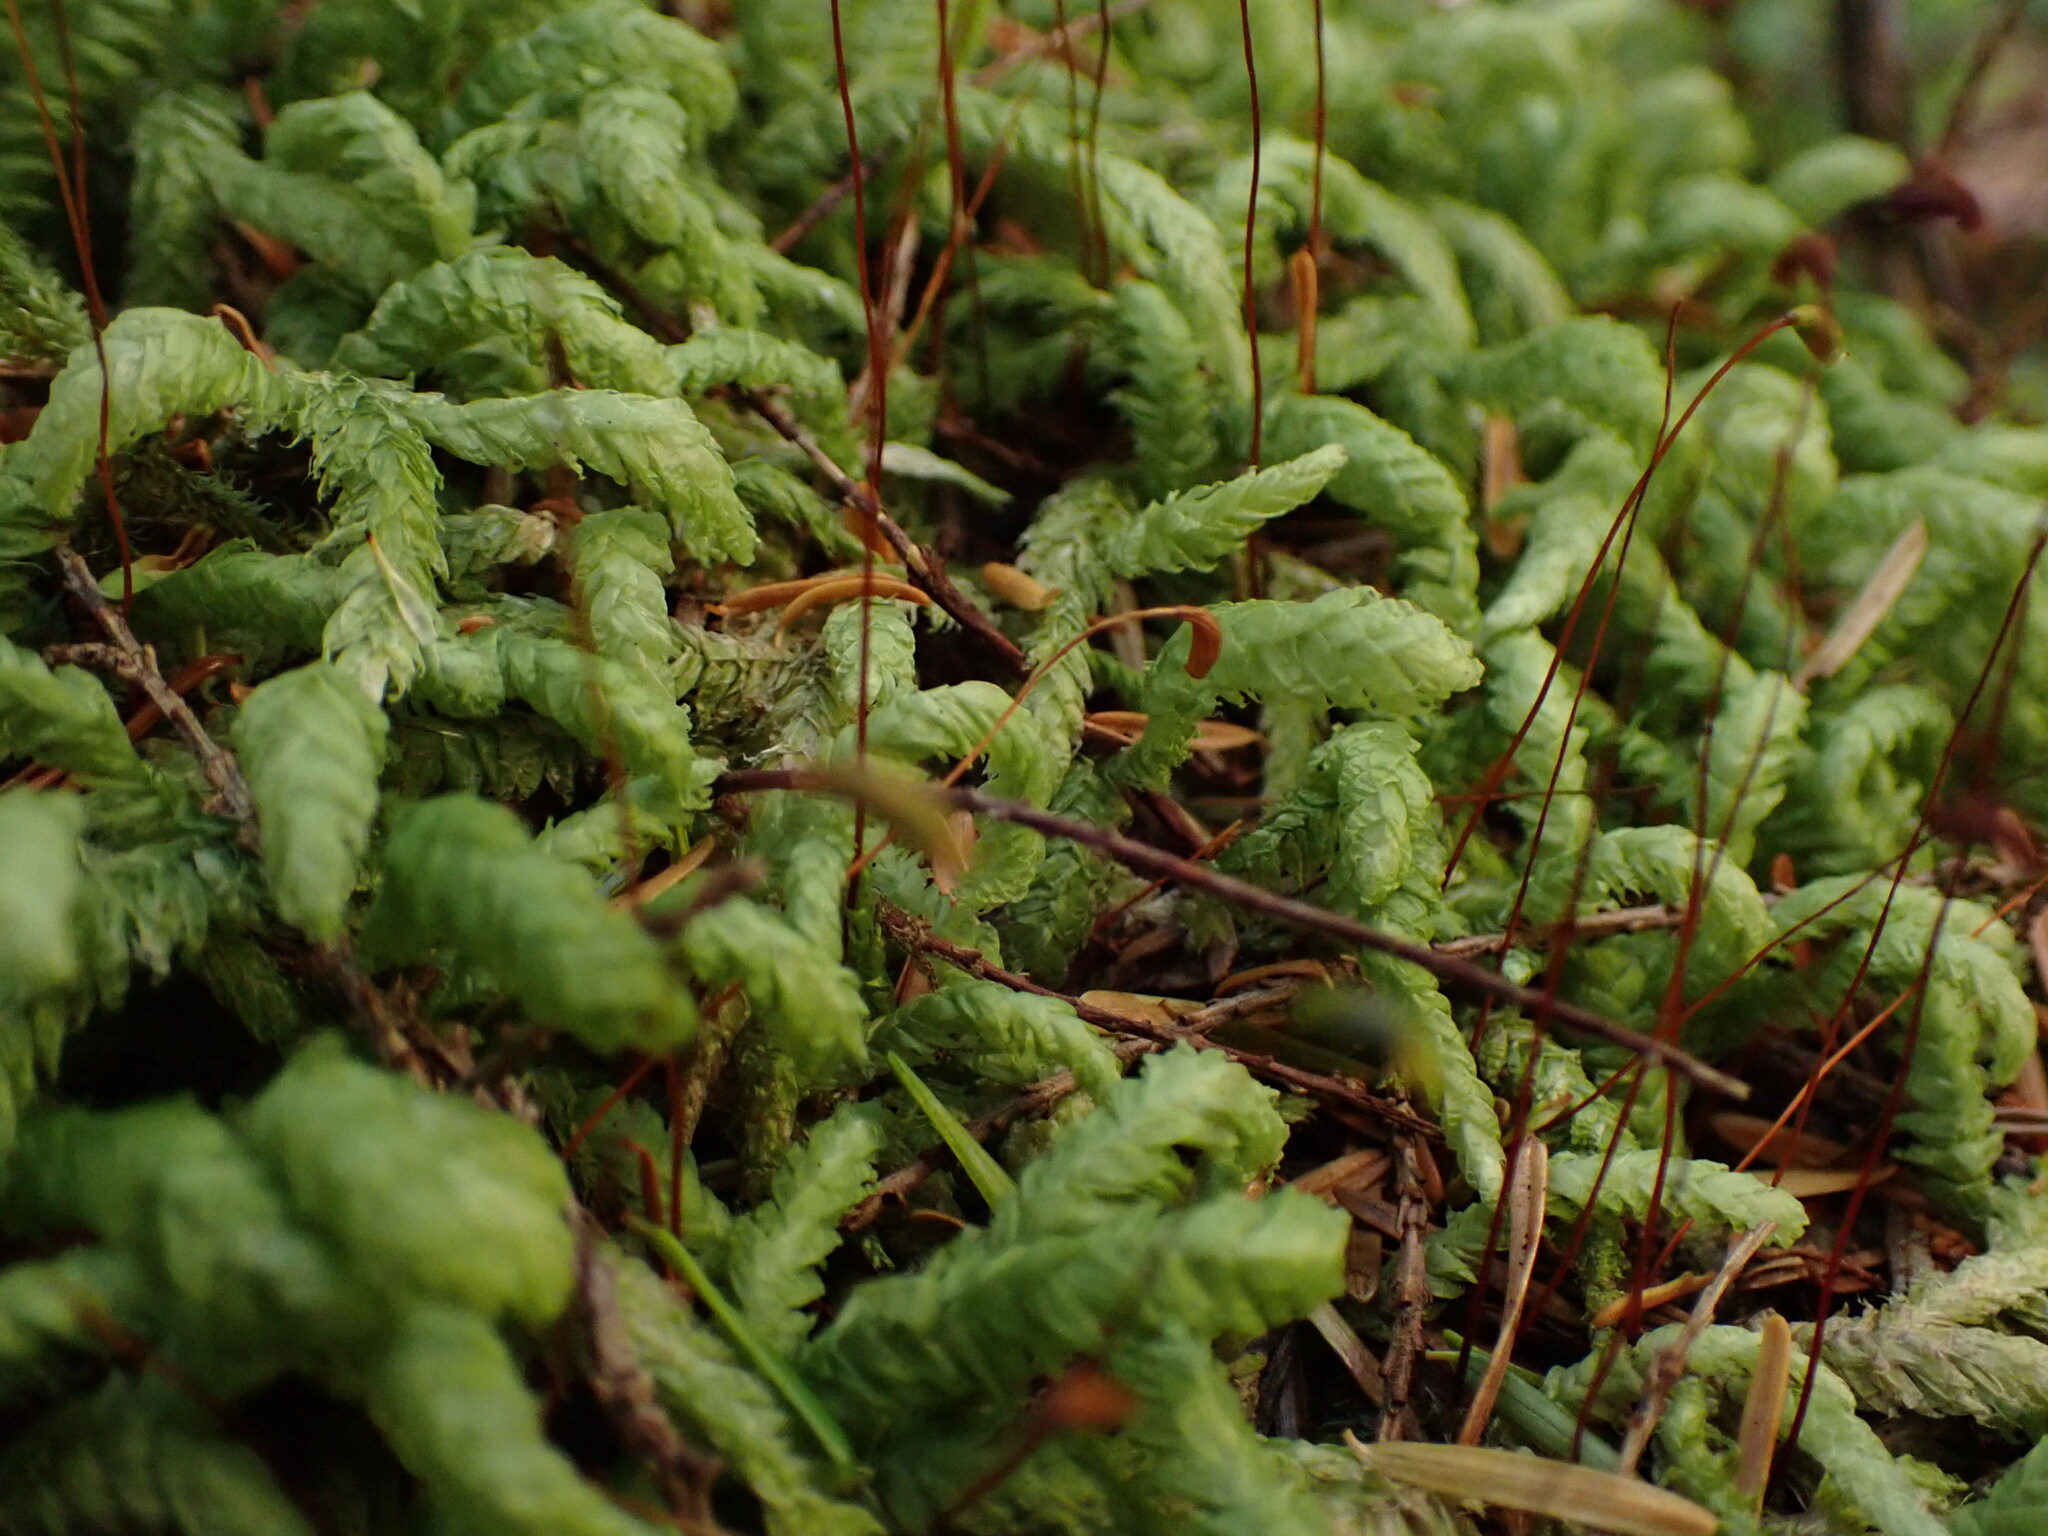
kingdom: Plantae
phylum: Bryophyta
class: Bryopsida
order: Hypnales
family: Plagiotheciaceae
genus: Plagiothecium
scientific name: Plagiothecium undulatum
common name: Waved silk-moss
